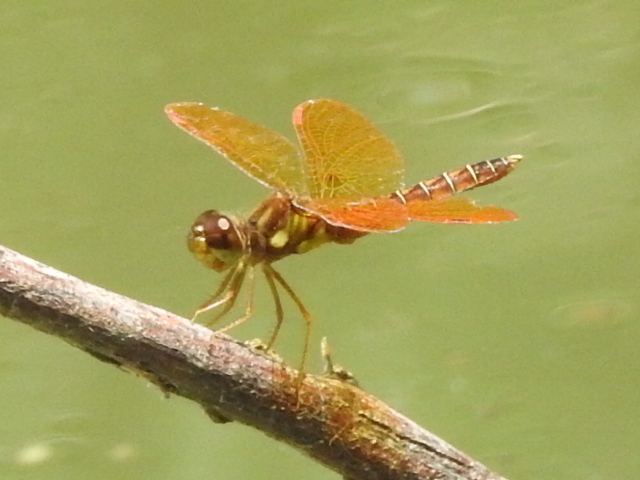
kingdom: Animalia
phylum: Arthropoda
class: Insecta
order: Odonata
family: Libellulidae
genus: Perithemis
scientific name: Perithemis tenera
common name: Eastern amberwing
